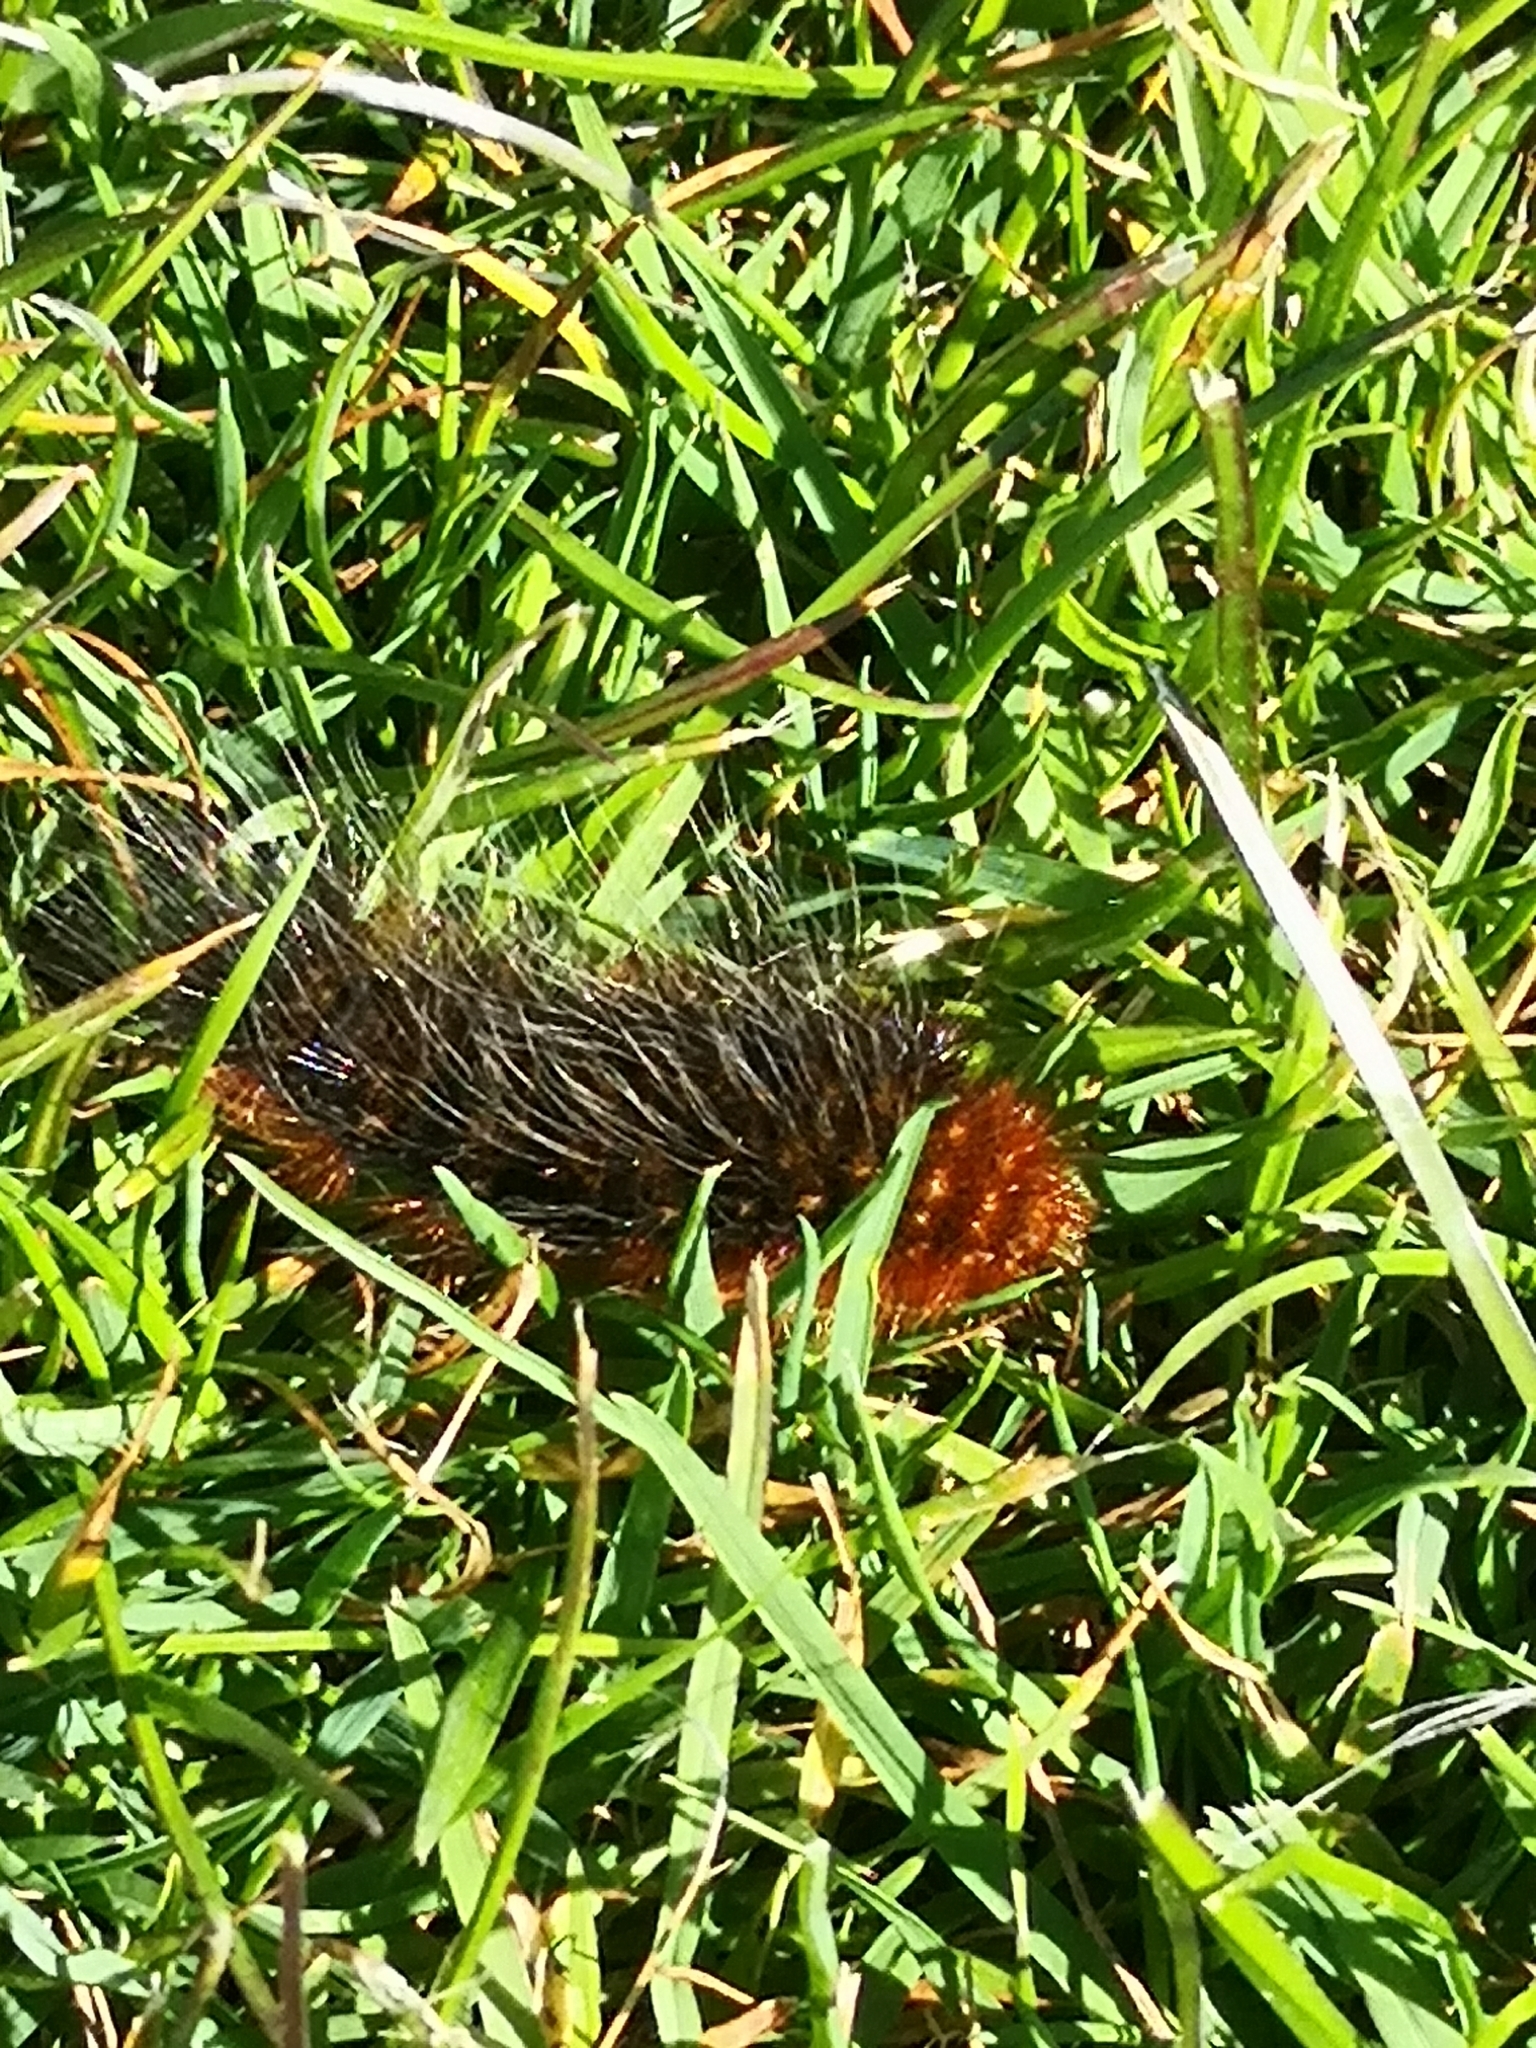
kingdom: Animalia
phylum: Arthropoda
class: Insecta
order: Lepidoptera
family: Erebidae
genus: Arctia
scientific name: Arctia caja
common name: Garden tiger
